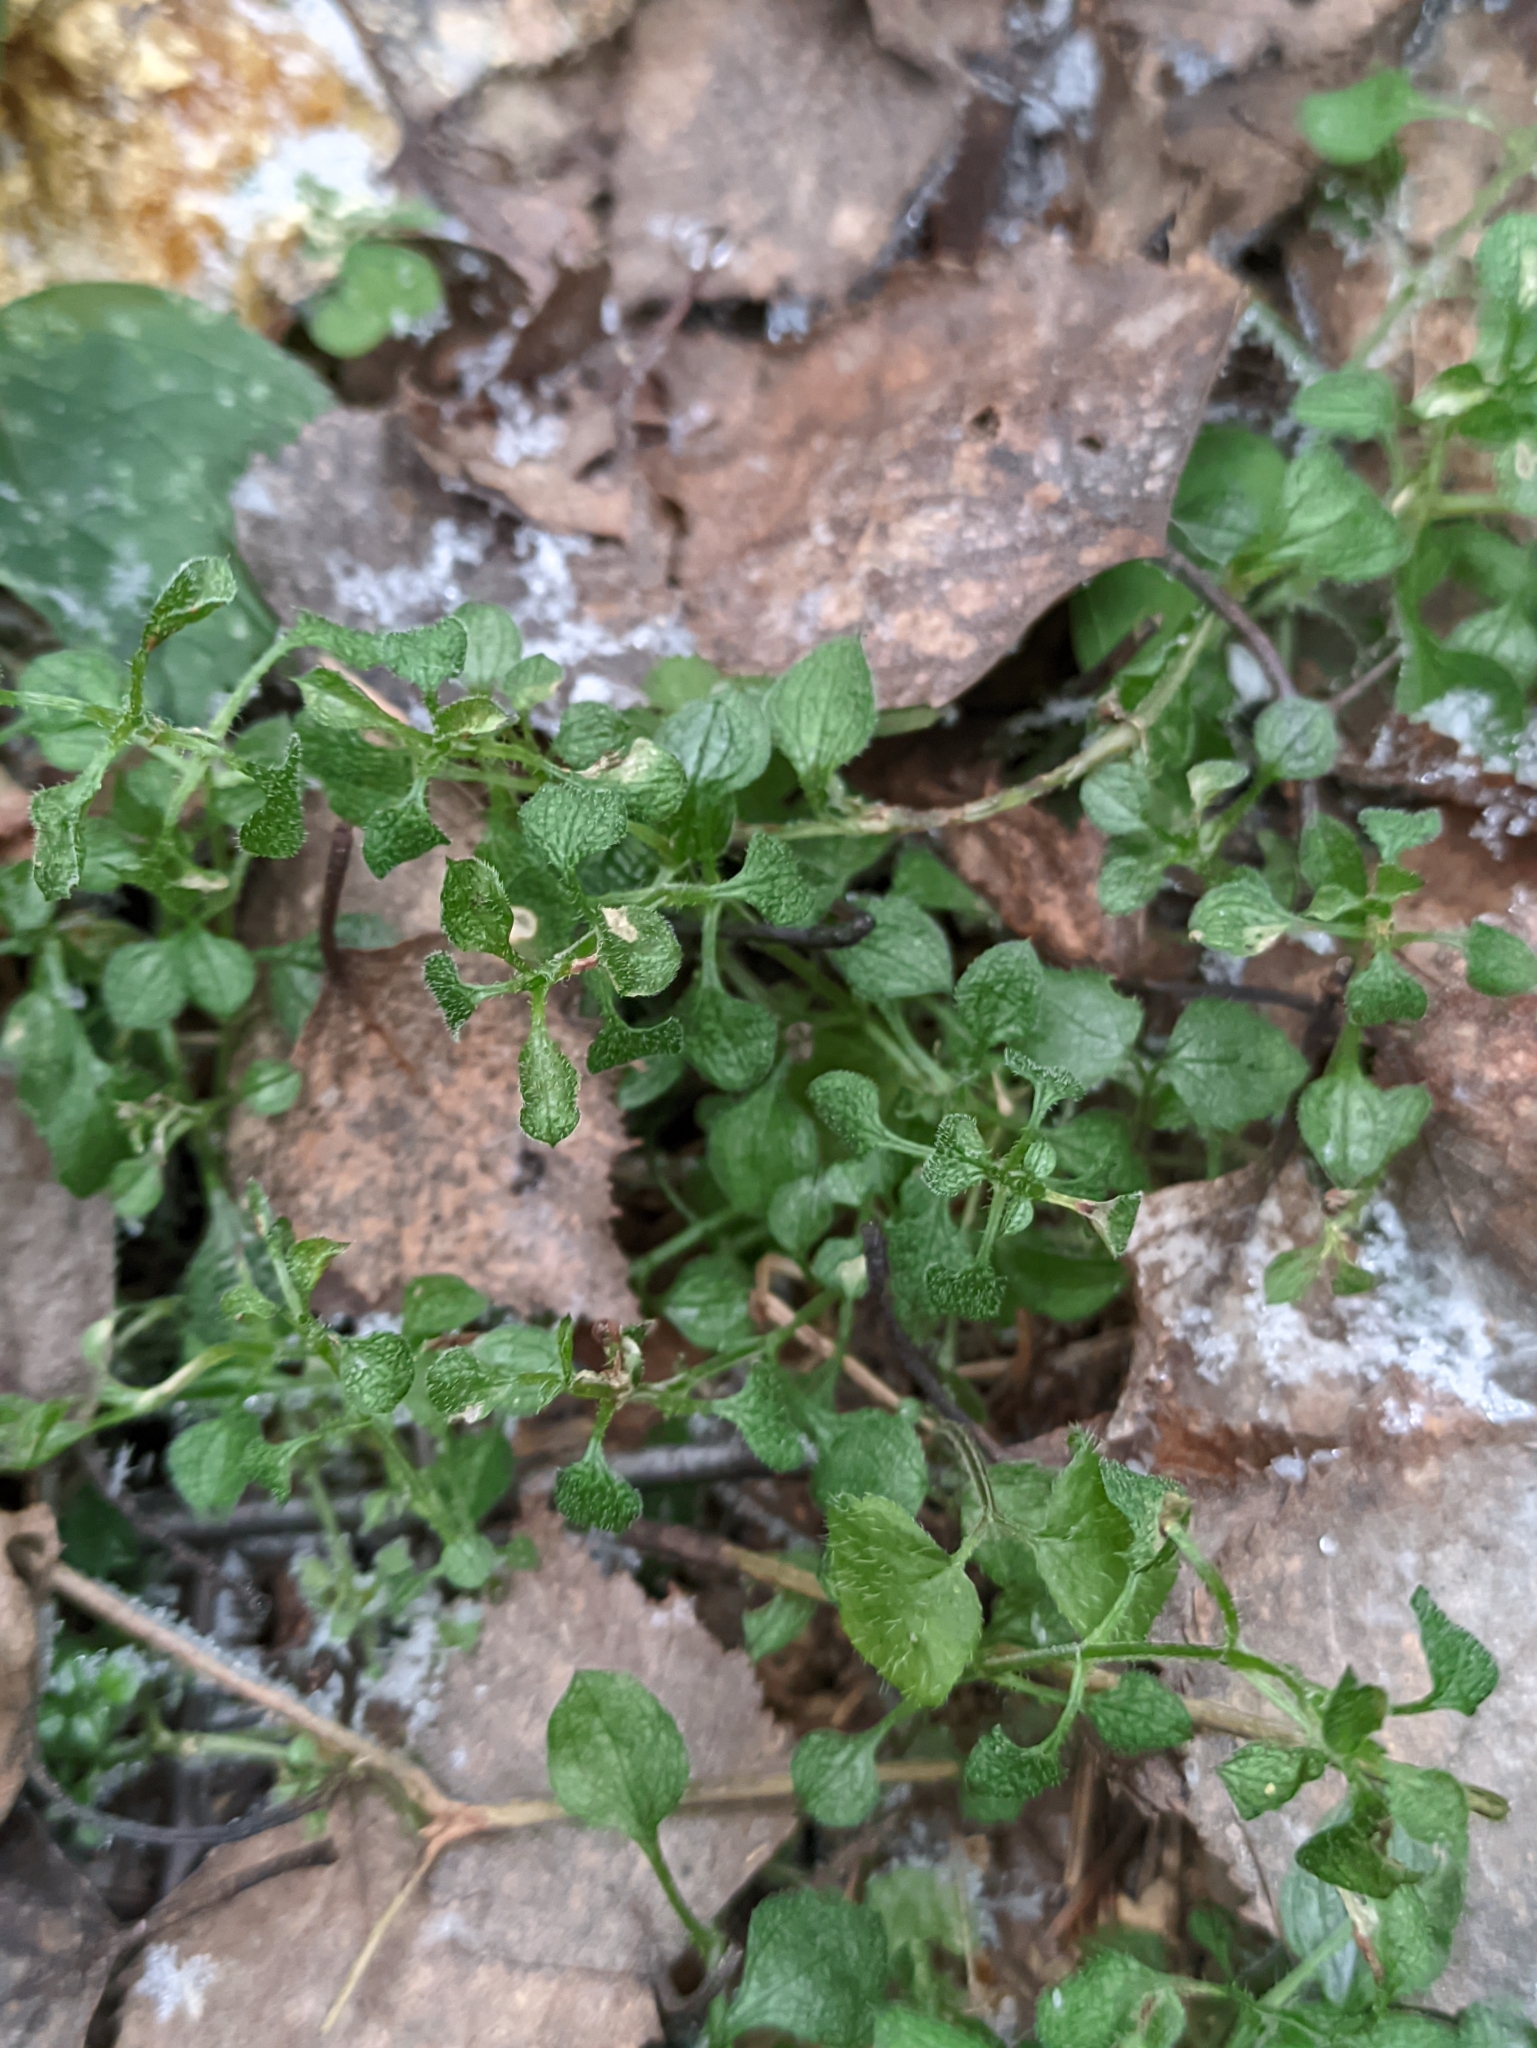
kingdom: Plantae
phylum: Tracheophyta
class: Magnoliopsida
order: Caryophyllales
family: Caryophyllaceae
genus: Moehringia
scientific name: Moehringia trinervia
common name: Three-nerved sandwort
